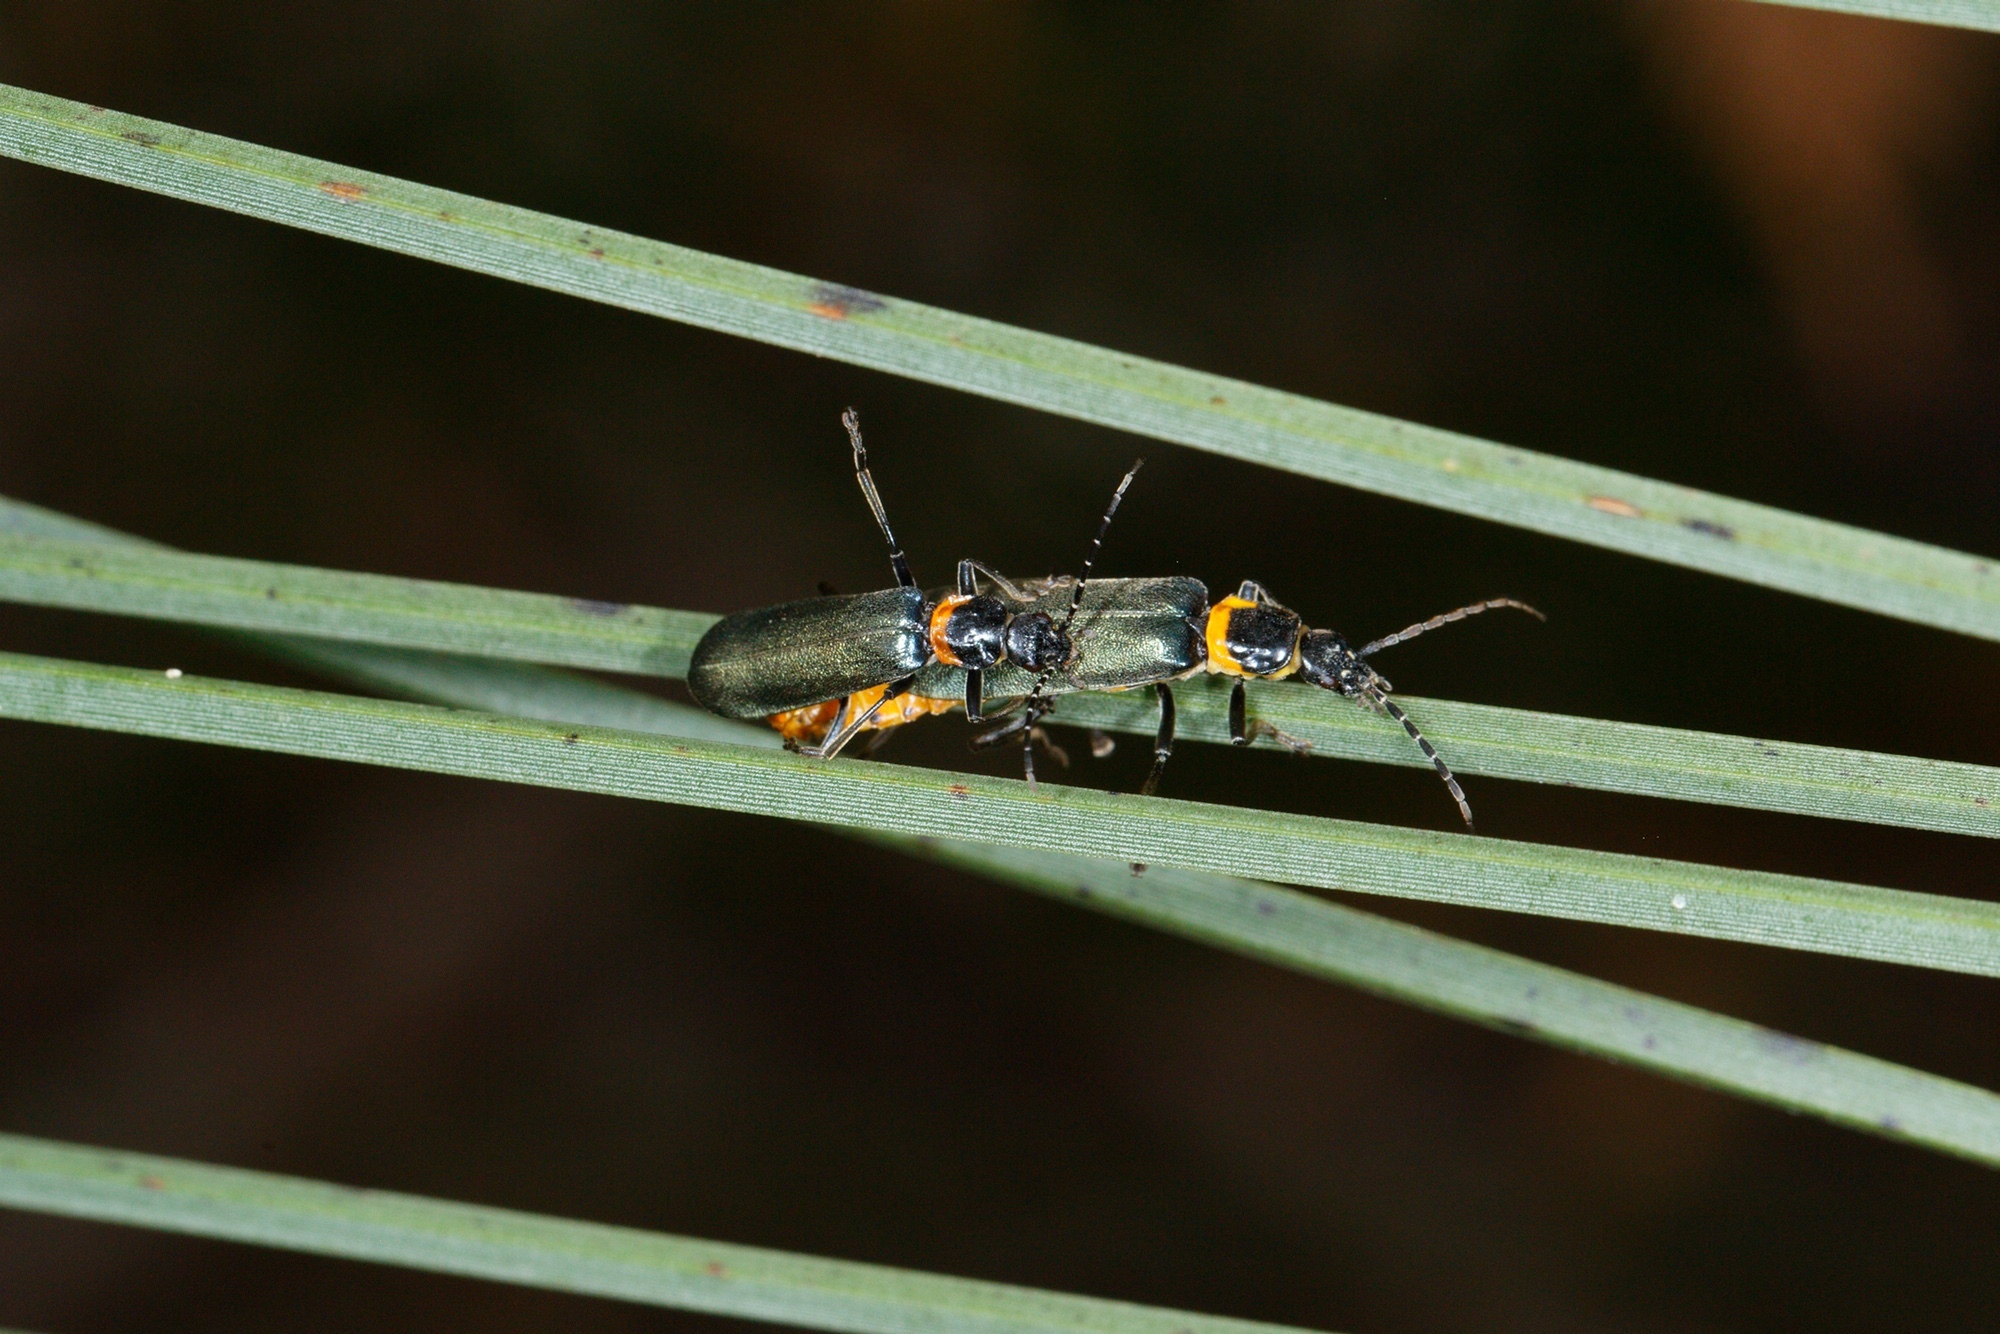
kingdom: Animalia
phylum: Arthropoda
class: Insecta
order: Coleoptera
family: Cantharidae
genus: Chauliognathus
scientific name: Chauliognathus
